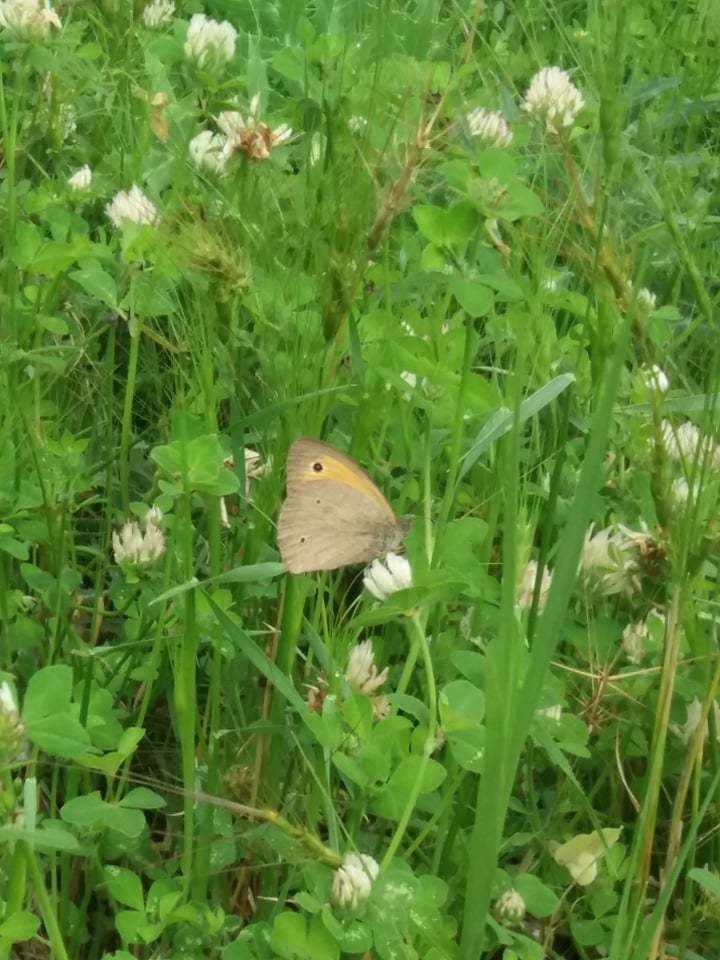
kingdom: Animalia
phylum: Arthropoda
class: Insecta
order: Lepidoptera
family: Nymphalidae
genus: Maniola
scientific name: Maniola jurtina
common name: Meadow brown
